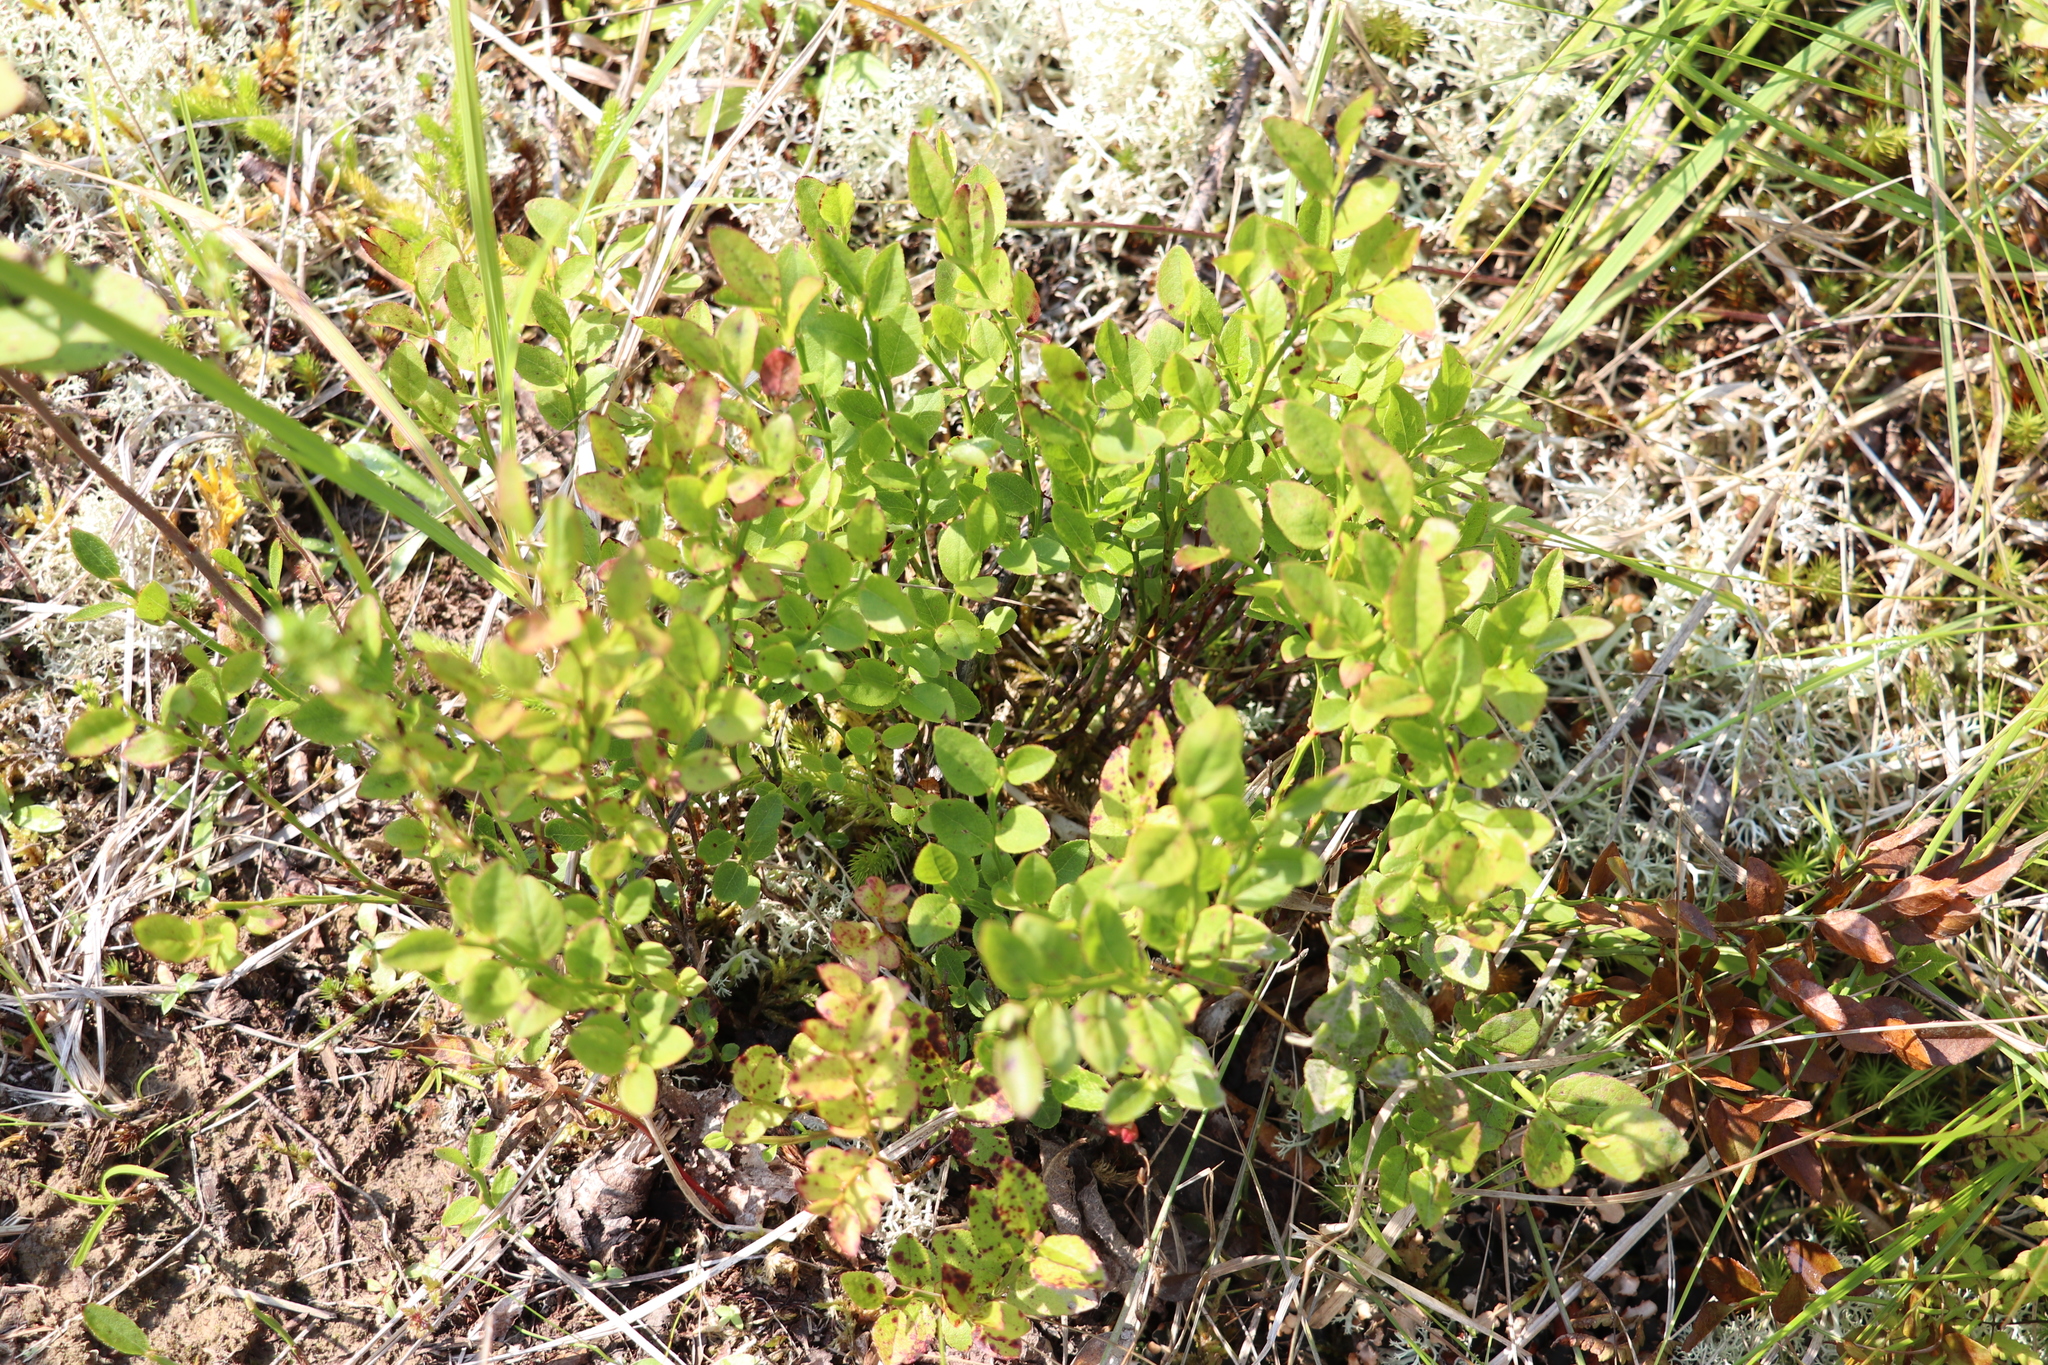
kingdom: Plantae
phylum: Tracheophyta
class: Magnoliopsida
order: Ericales
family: Ericaceae
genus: Vaccinium
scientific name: Vaccinium myrtillus
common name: Bilberry
